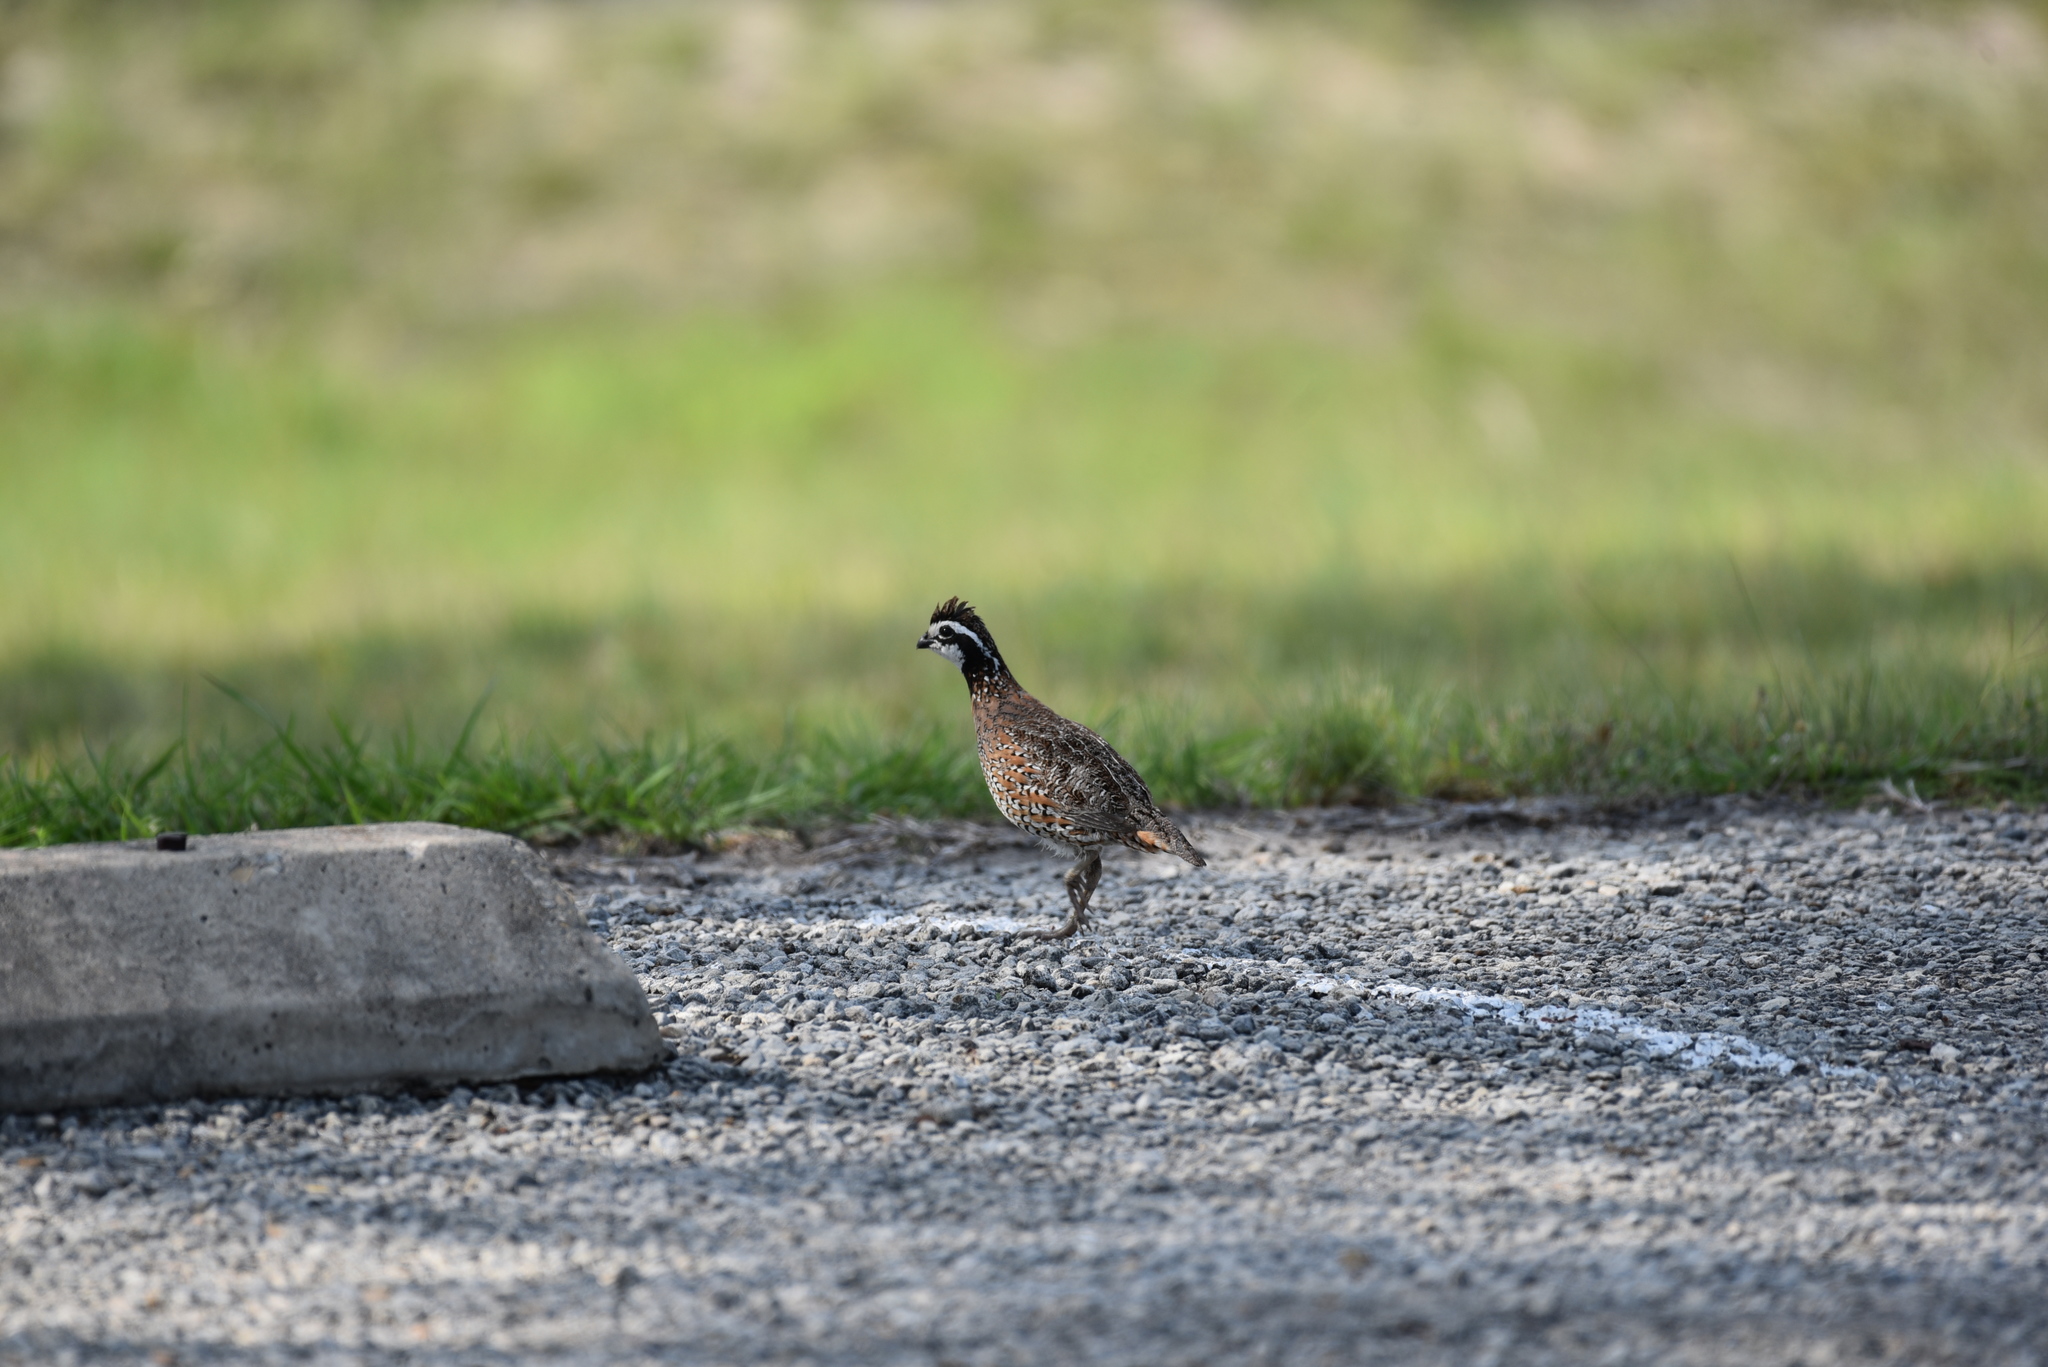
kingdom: Animalia
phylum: Chordata
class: Aves
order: Galliformes
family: Odontophoridae
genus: Colinus
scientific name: Colinus virginianus
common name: Northern bobwhite
